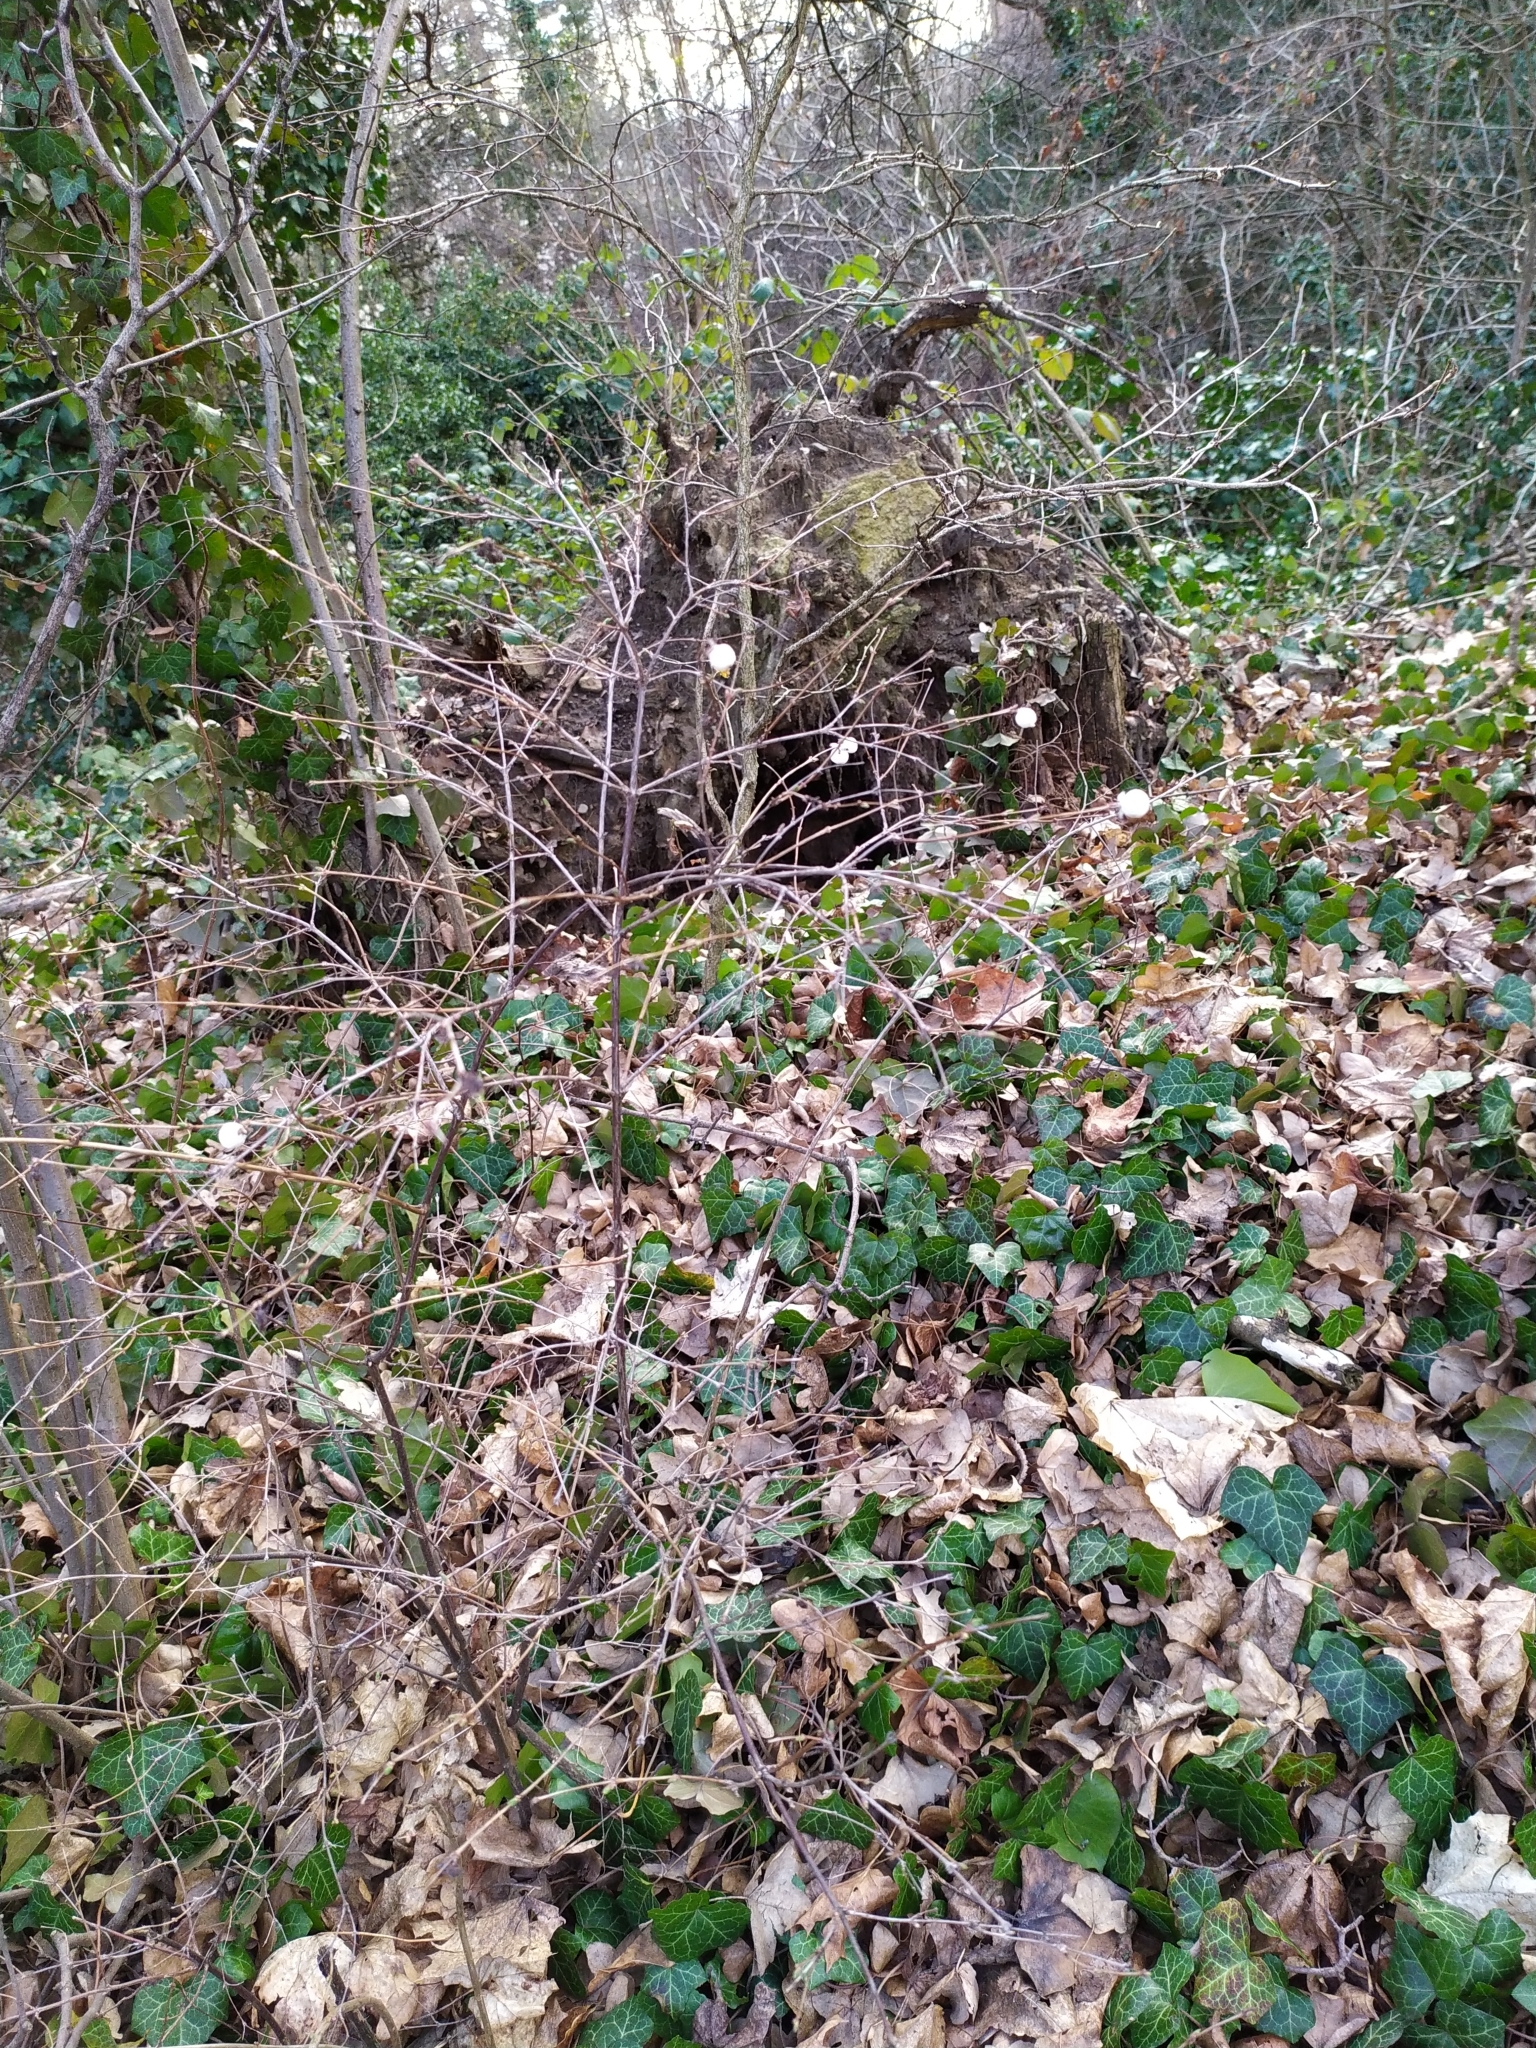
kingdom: Plantae
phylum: Tracheophyta
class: Magnoliopsida
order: Dipsacales
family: Caprifoliaceae
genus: Symphoricarpos
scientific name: Symphoricarpos albus
